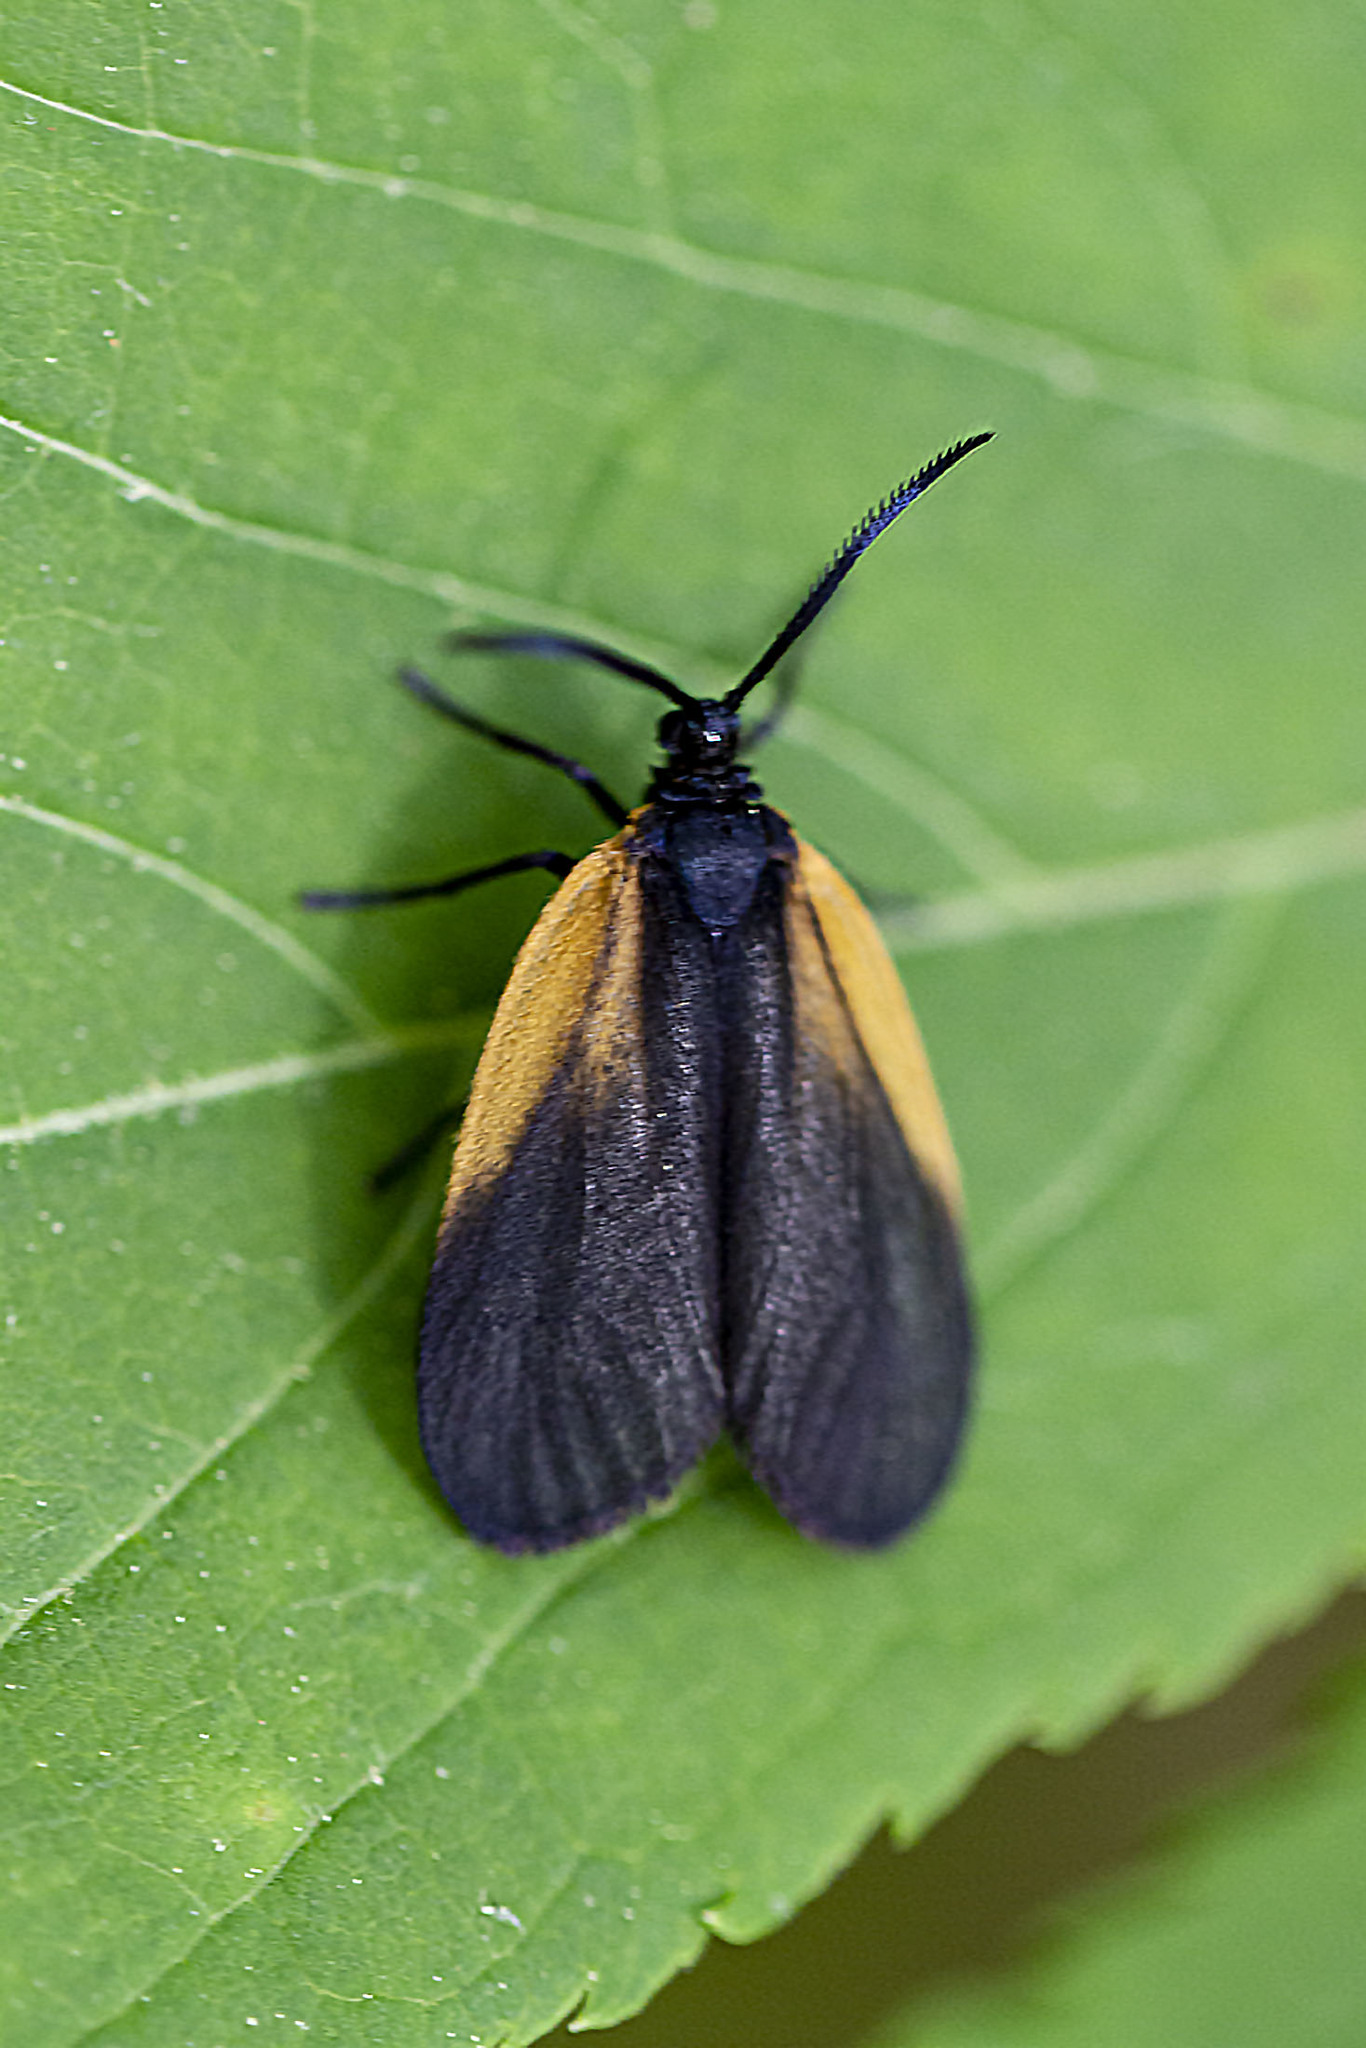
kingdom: Animalia
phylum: Arthropoda
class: Insecta
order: Lepidoptera
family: Zygaenidae
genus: Malthaca
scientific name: Malthaca dimidiata
